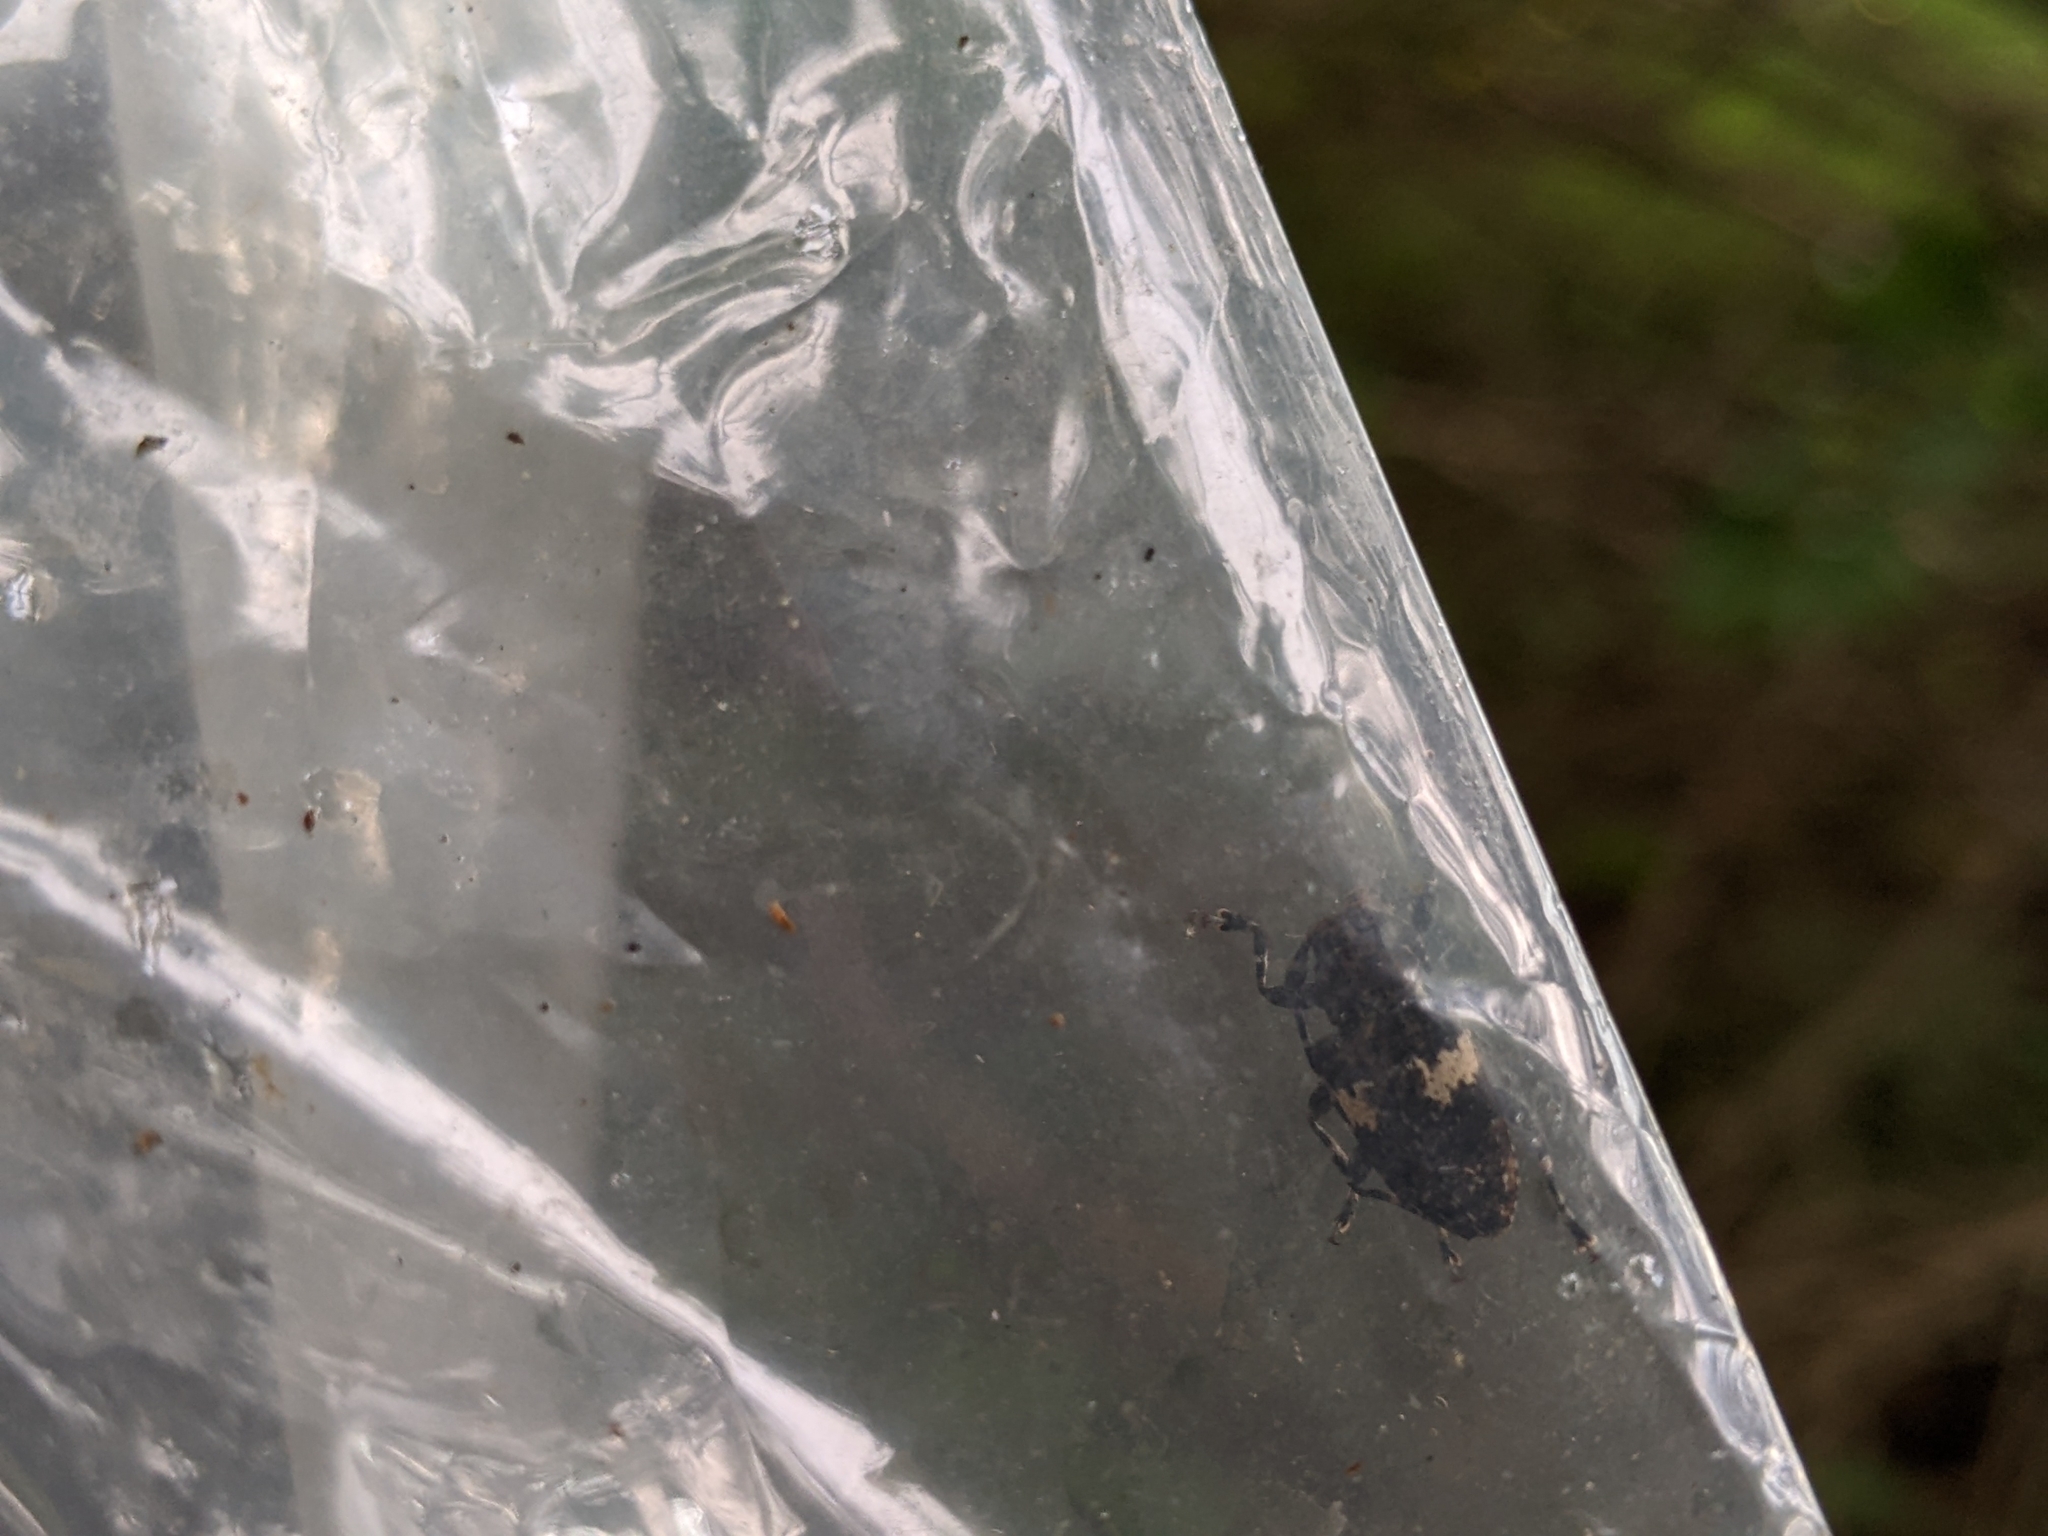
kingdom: Animalia
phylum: Arthropoda
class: Insecta
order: Coleoptera
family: Cerambycidae
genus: Acanthoderes
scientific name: Acanthoderes quadrigibba
